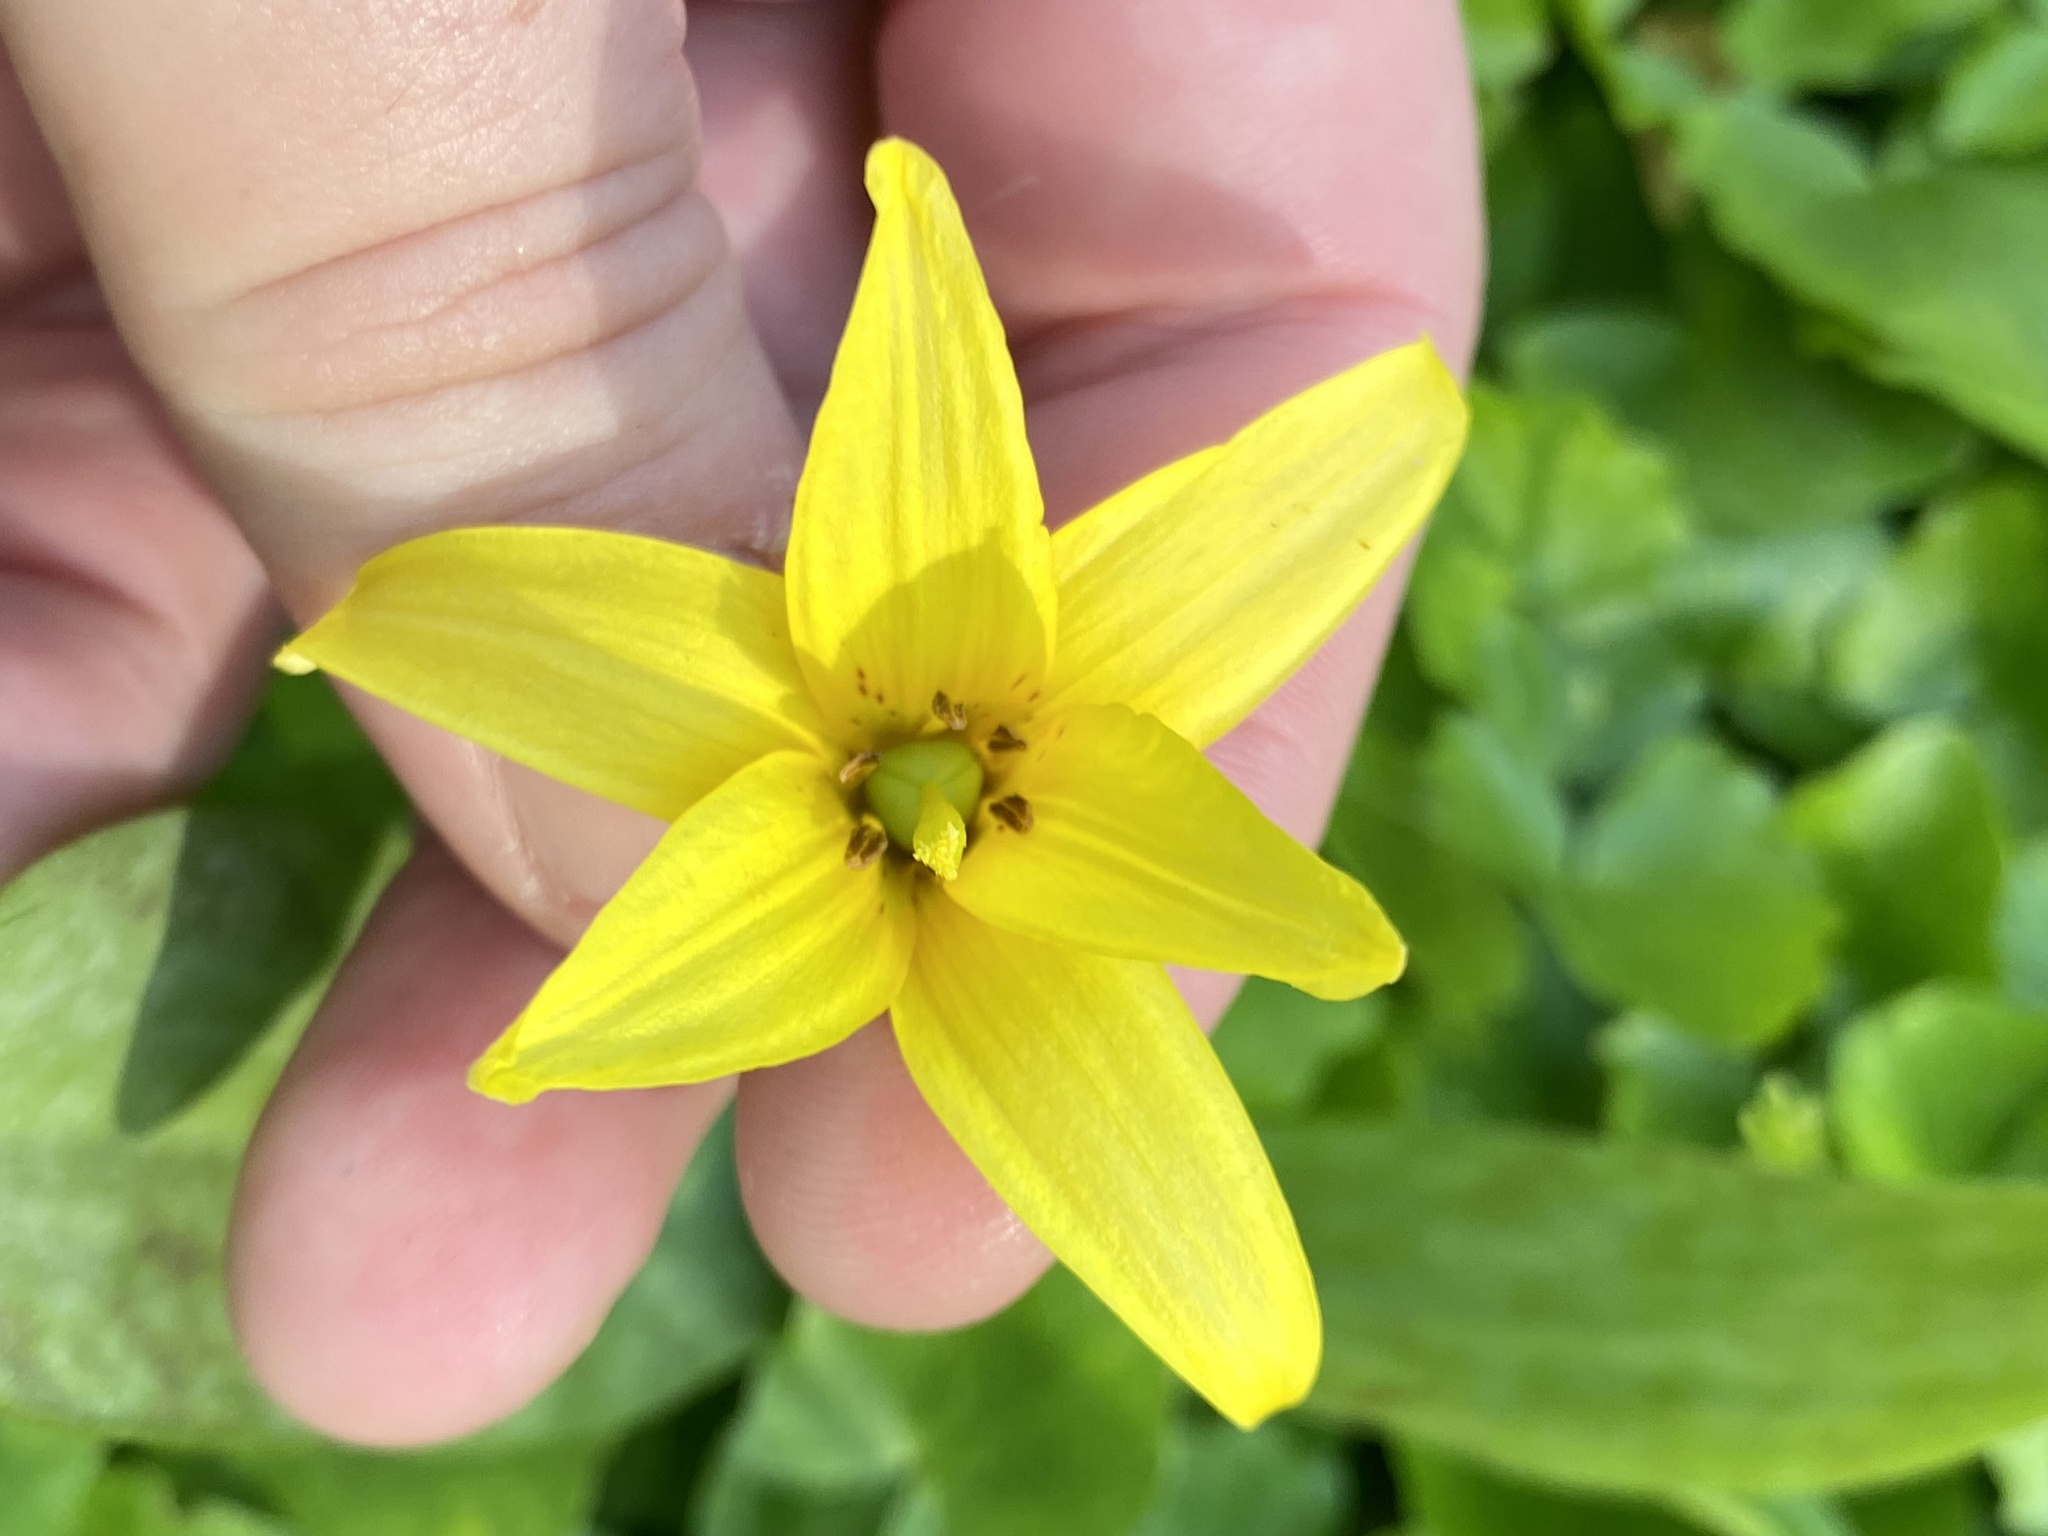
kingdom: Plantae
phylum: Tracheophyta
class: Liliopsida
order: Liliales
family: Liliaceae
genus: Erythronium
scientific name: Erythronium americanum
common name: Yellow adder's-tongue
